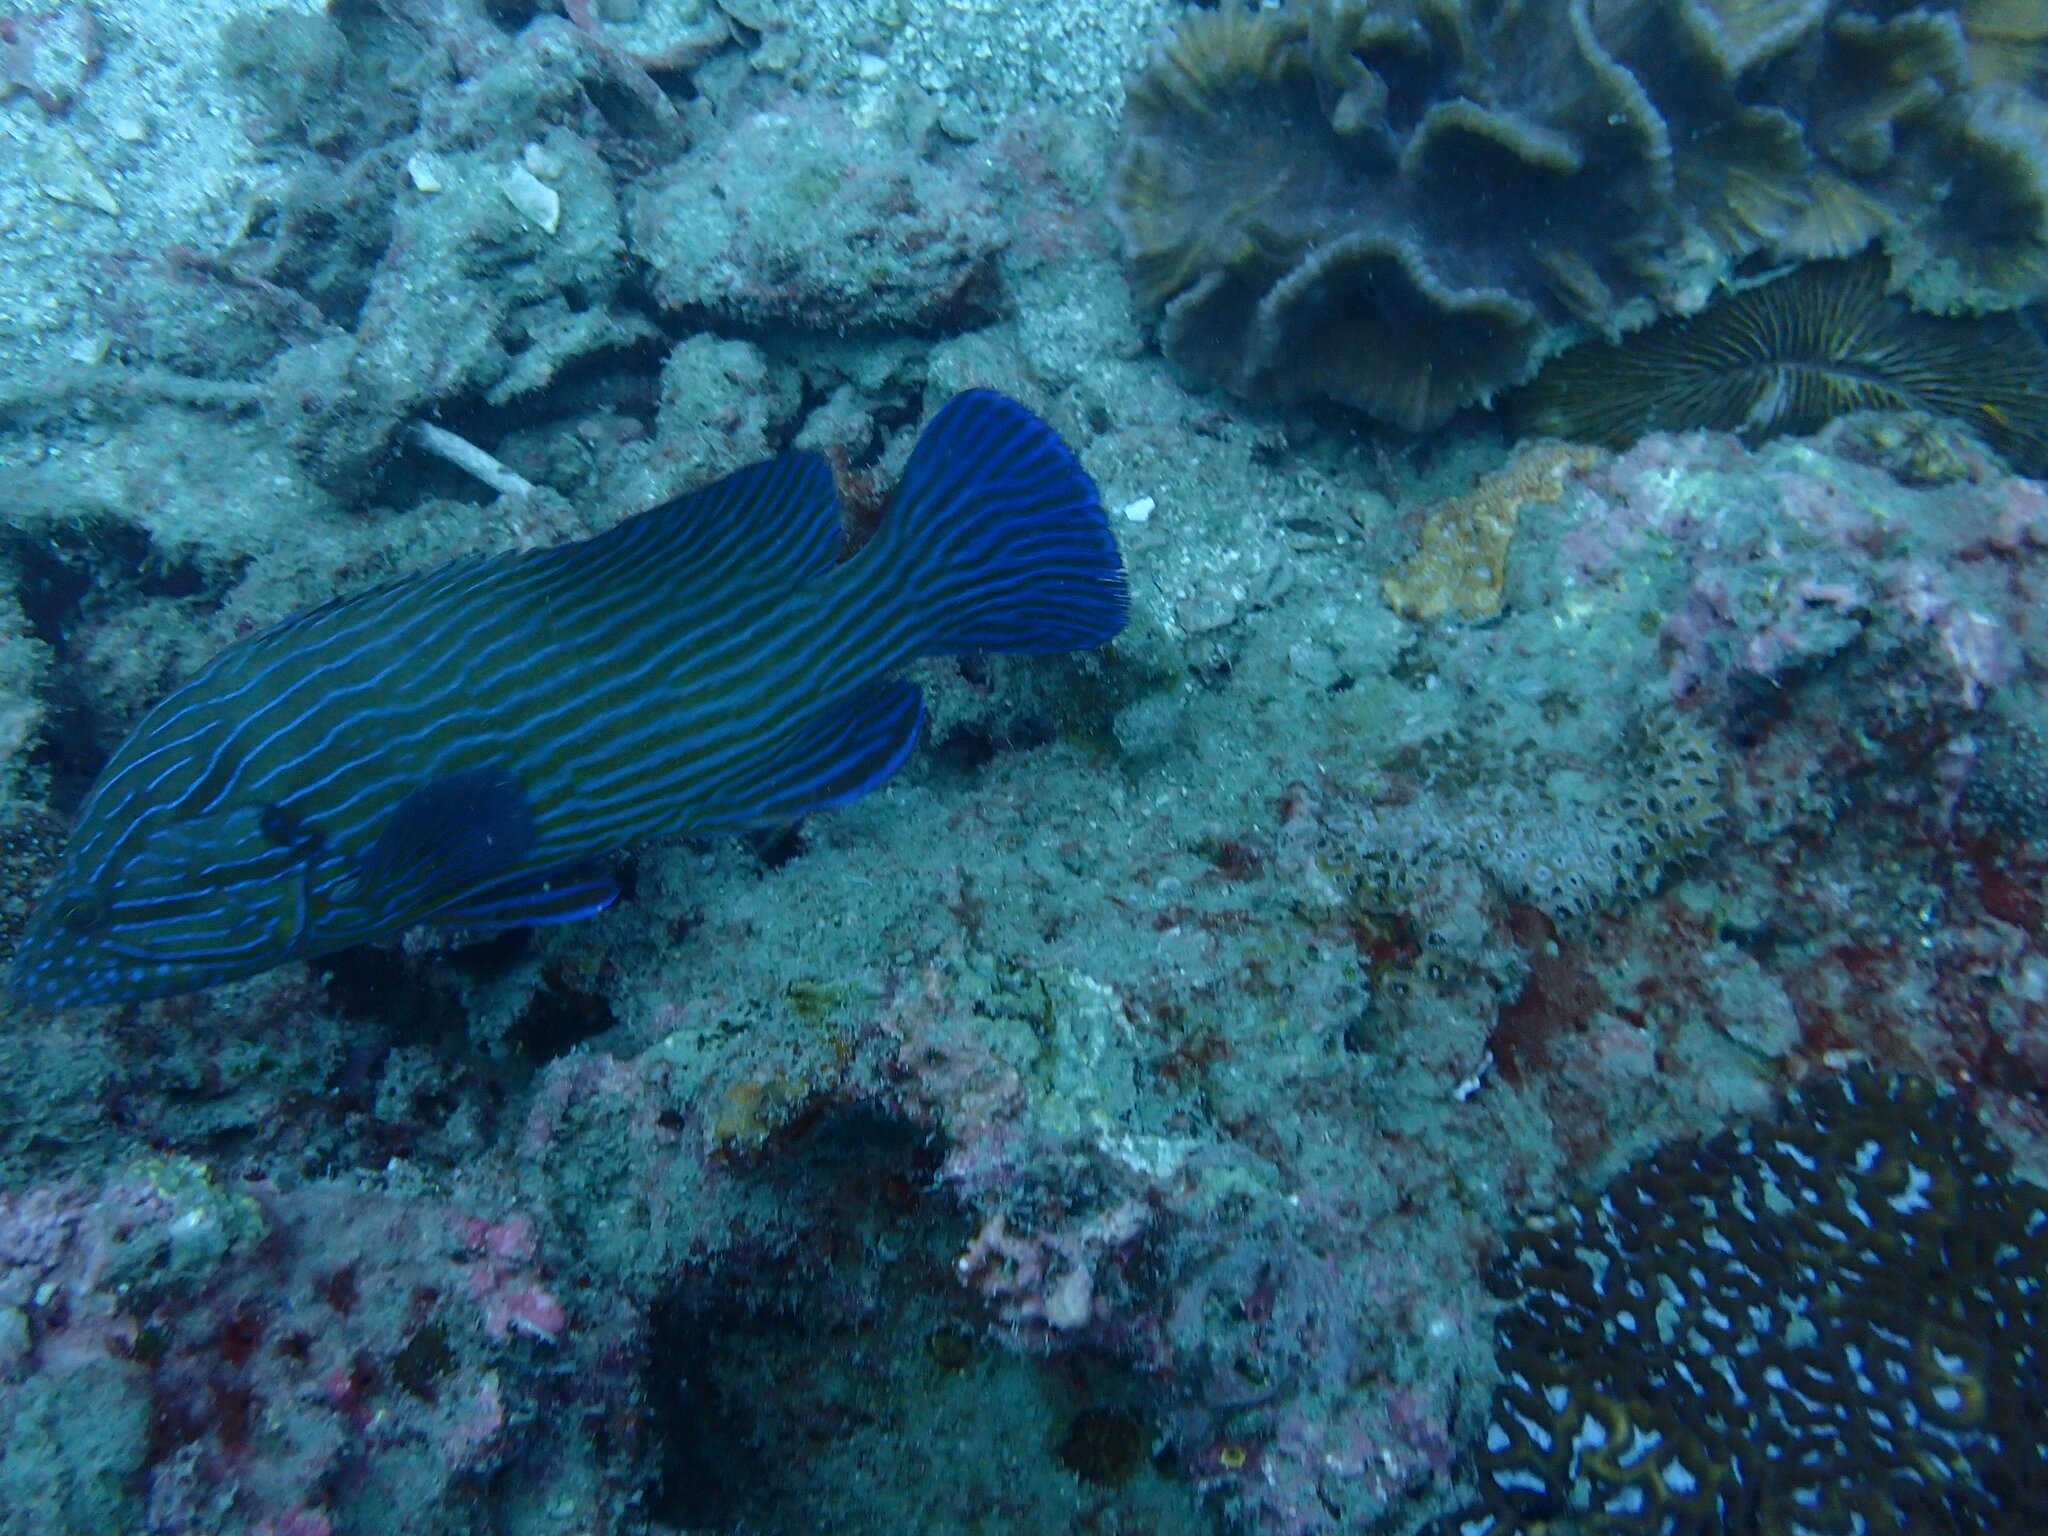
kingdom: Animalia
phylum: Chordata
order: Perciformes
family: Serranidae
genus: Cephalopholis
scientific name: Cephalopholis formosa
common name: Bluelined hind
